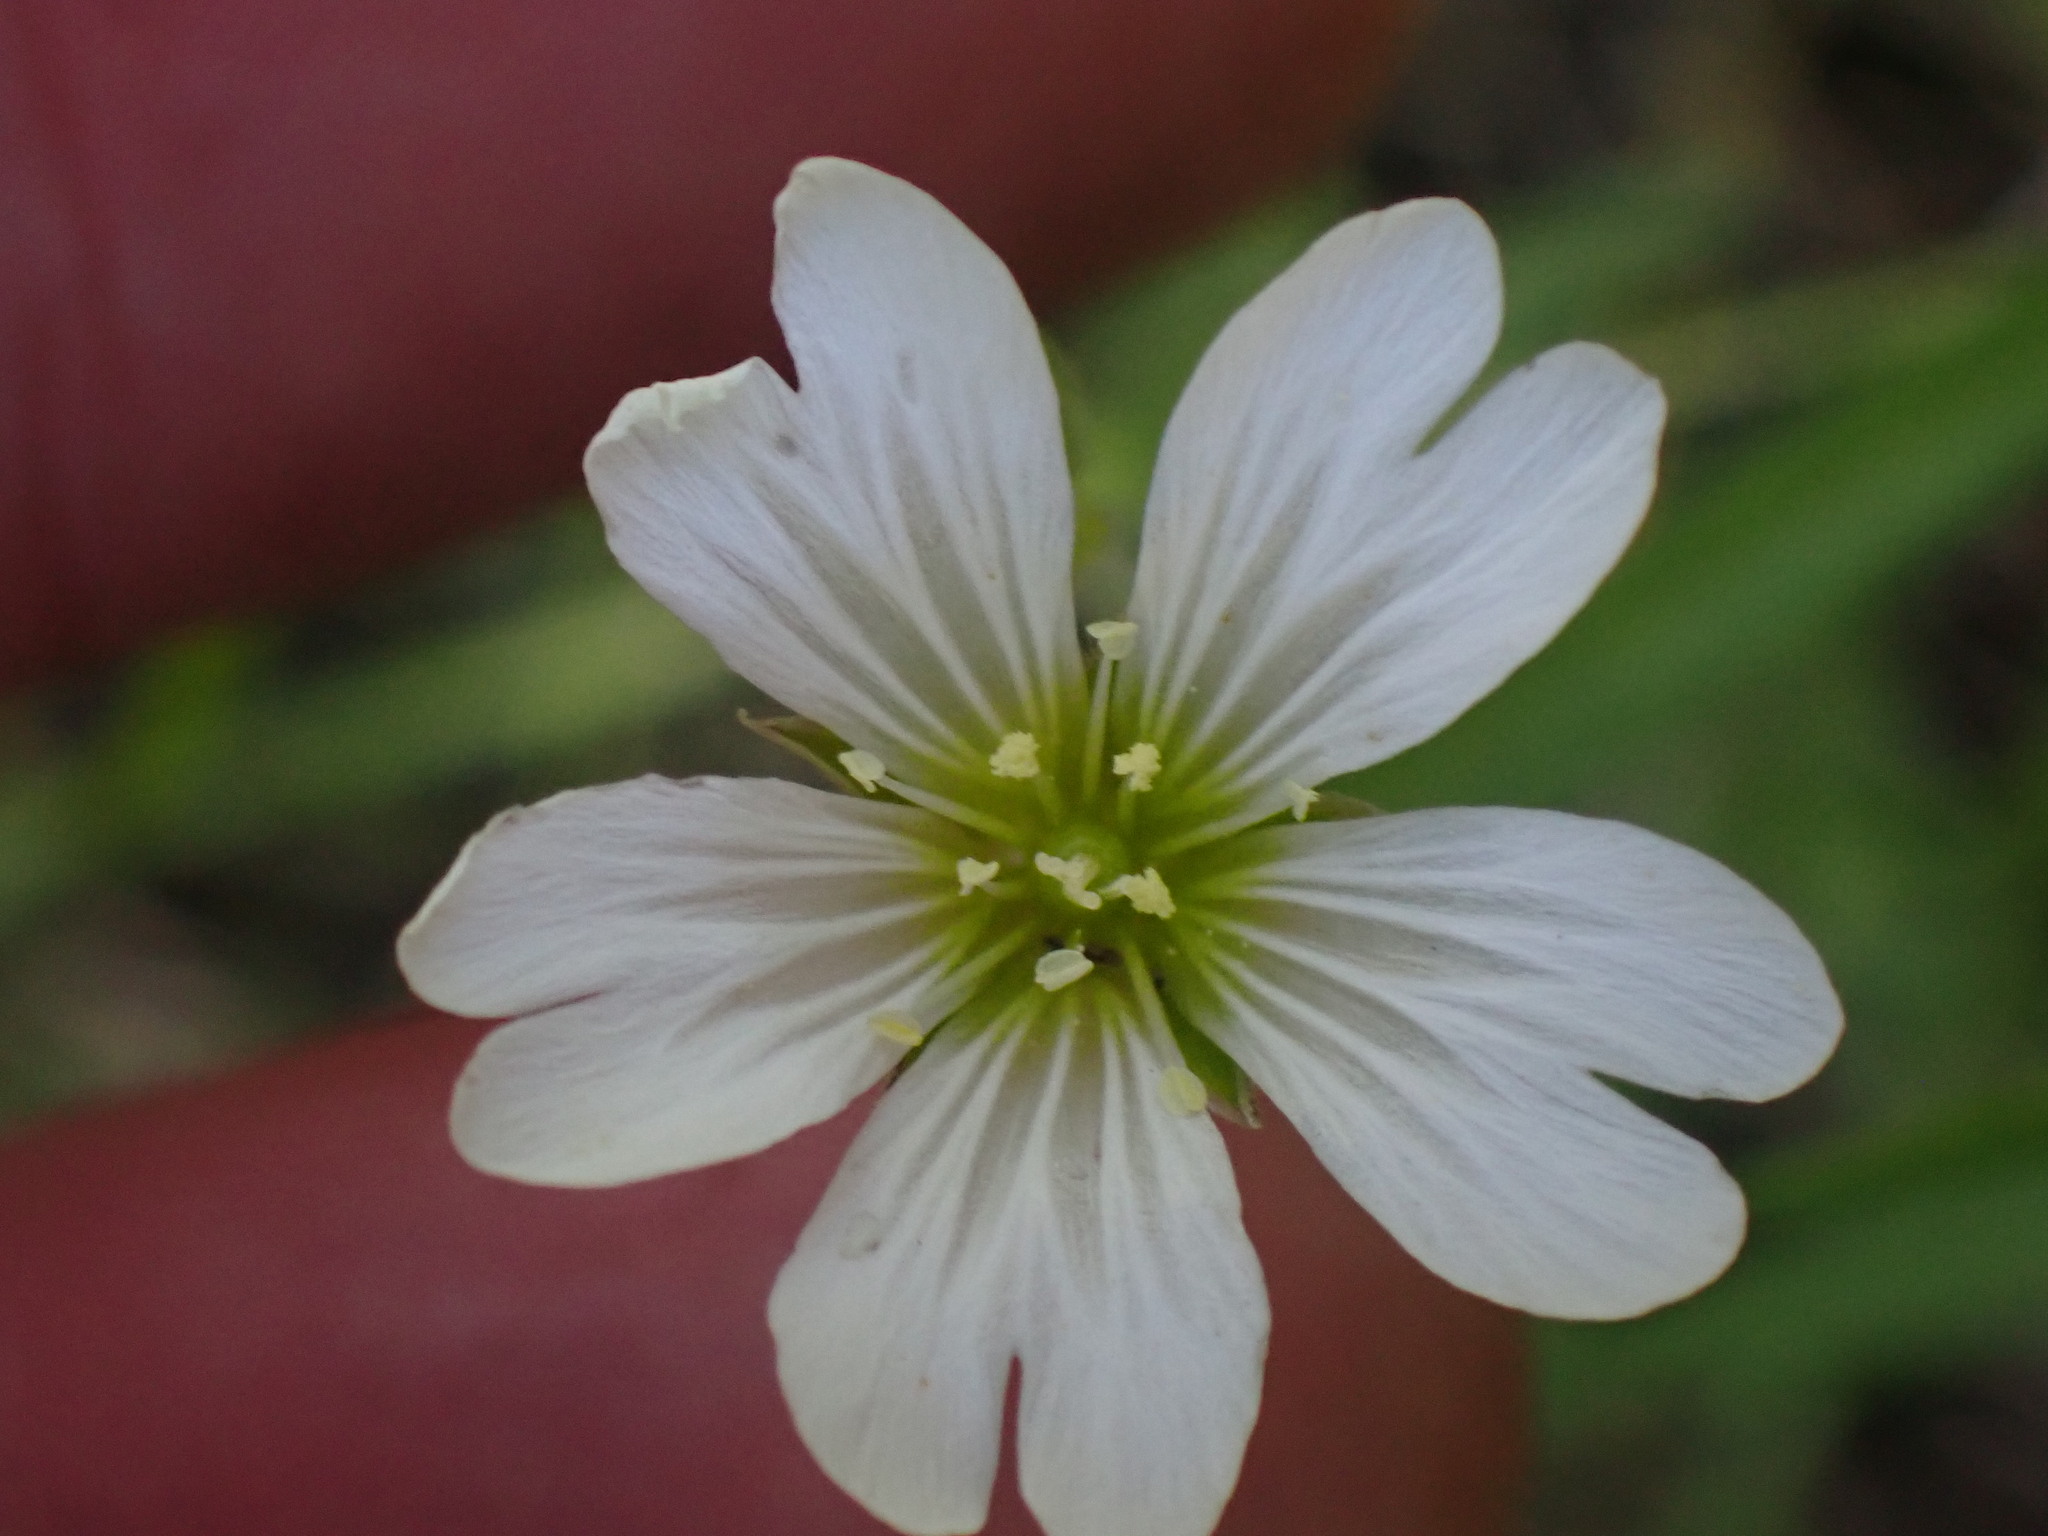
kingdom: Plantae
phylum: Tracheophyta
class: Magnoliopsida
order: Caryophyllales
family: Caryophyllaceae
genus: Cerastium
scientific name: Cerastium arvense
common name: Field mouse-ear
